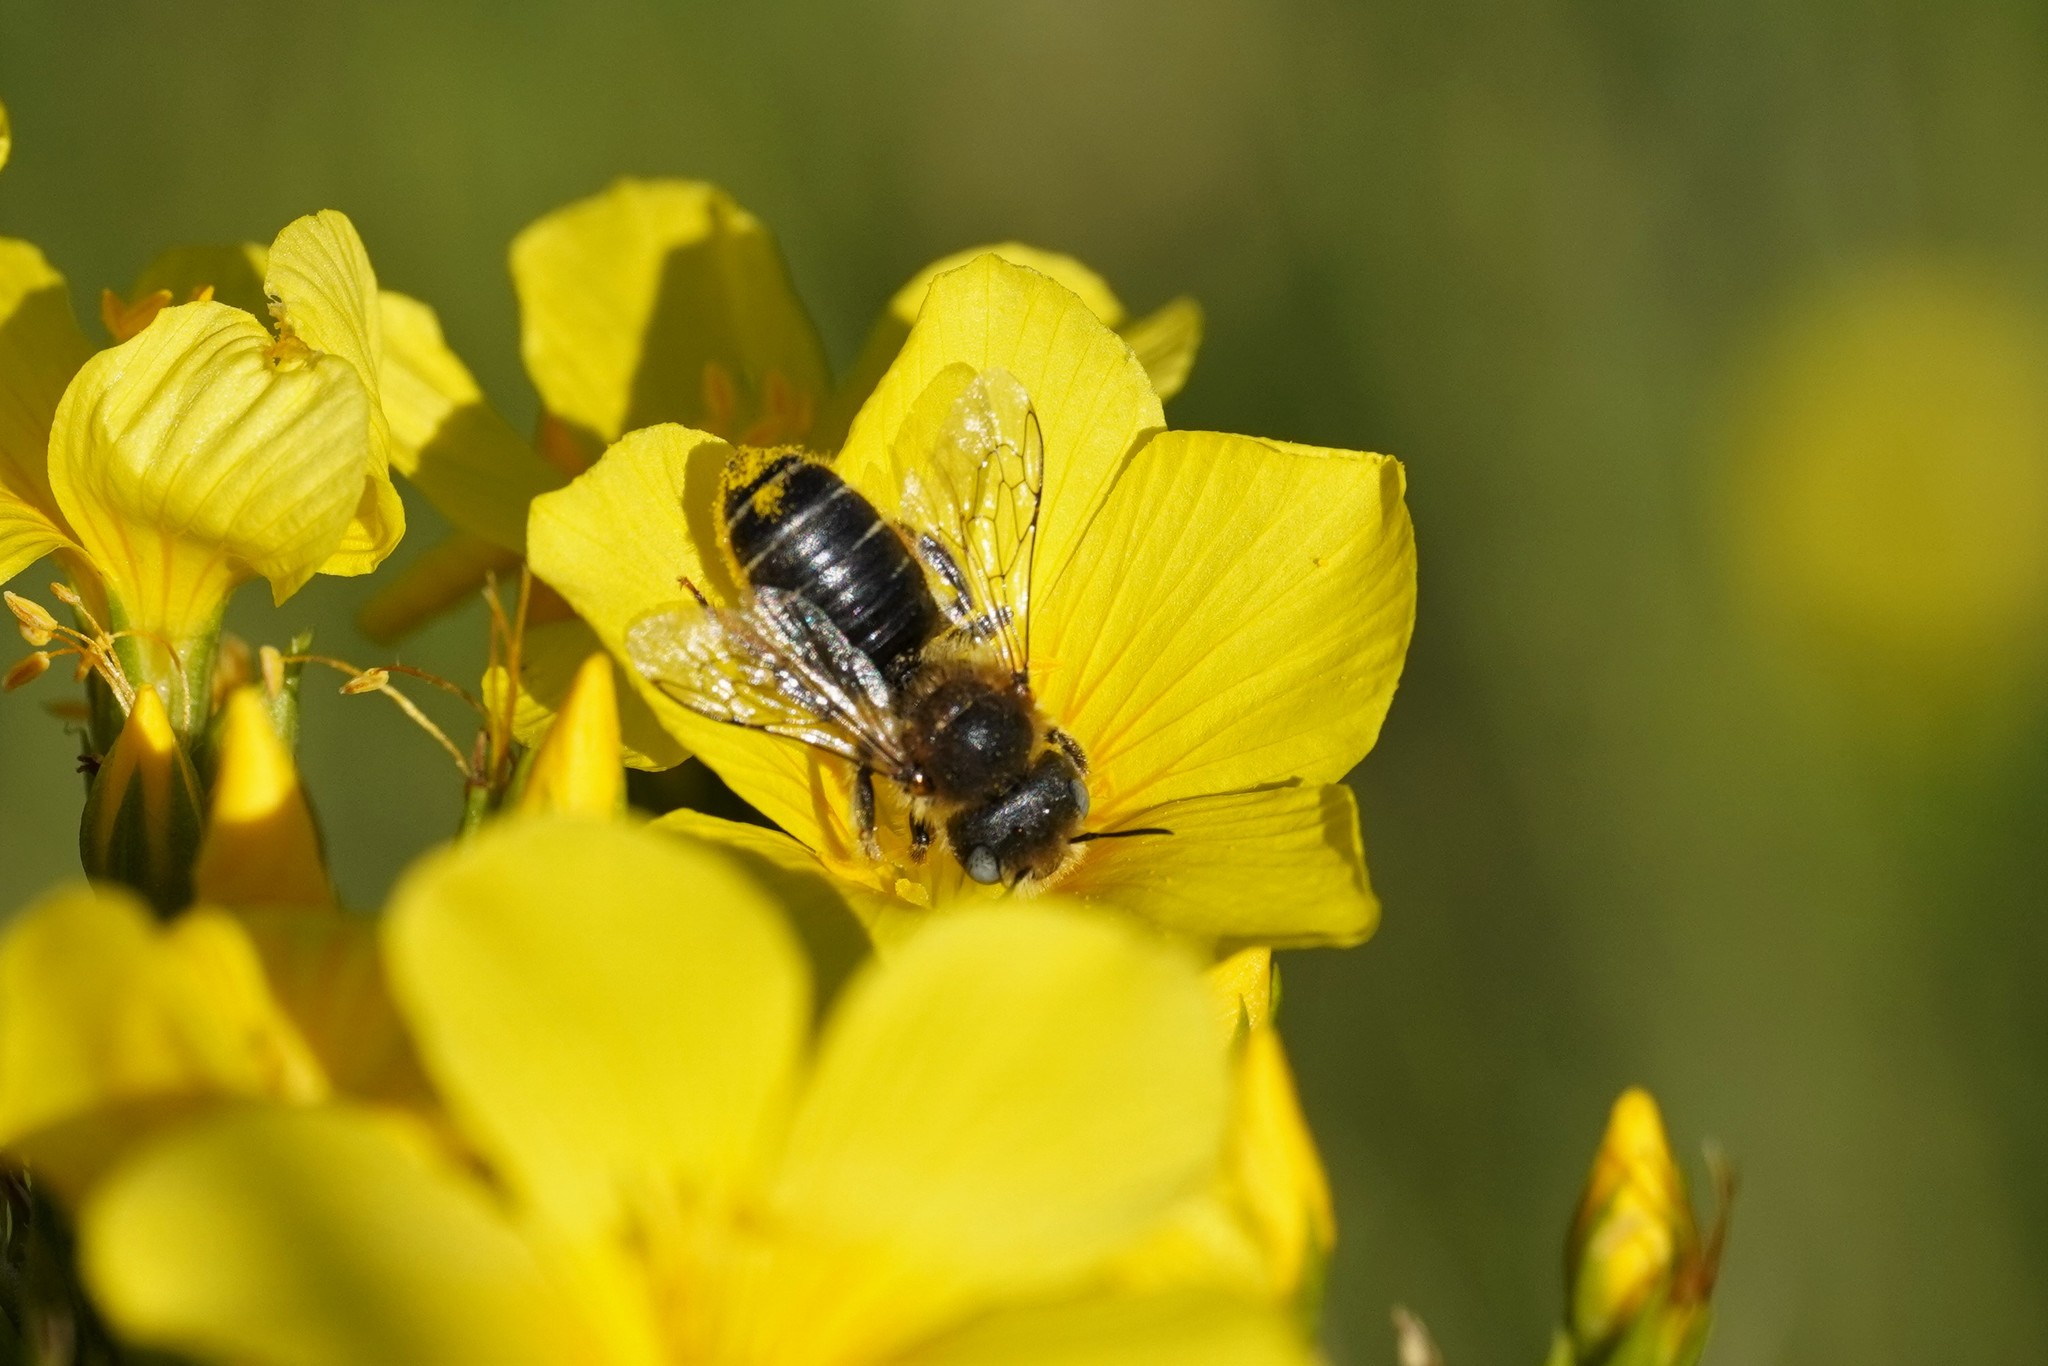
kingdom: Animalia
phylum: Arthropoda
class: Insecta
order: Hymenoptera
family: Megachilidae
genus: Hoplitis
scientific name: Hoplitis mocsaryi
